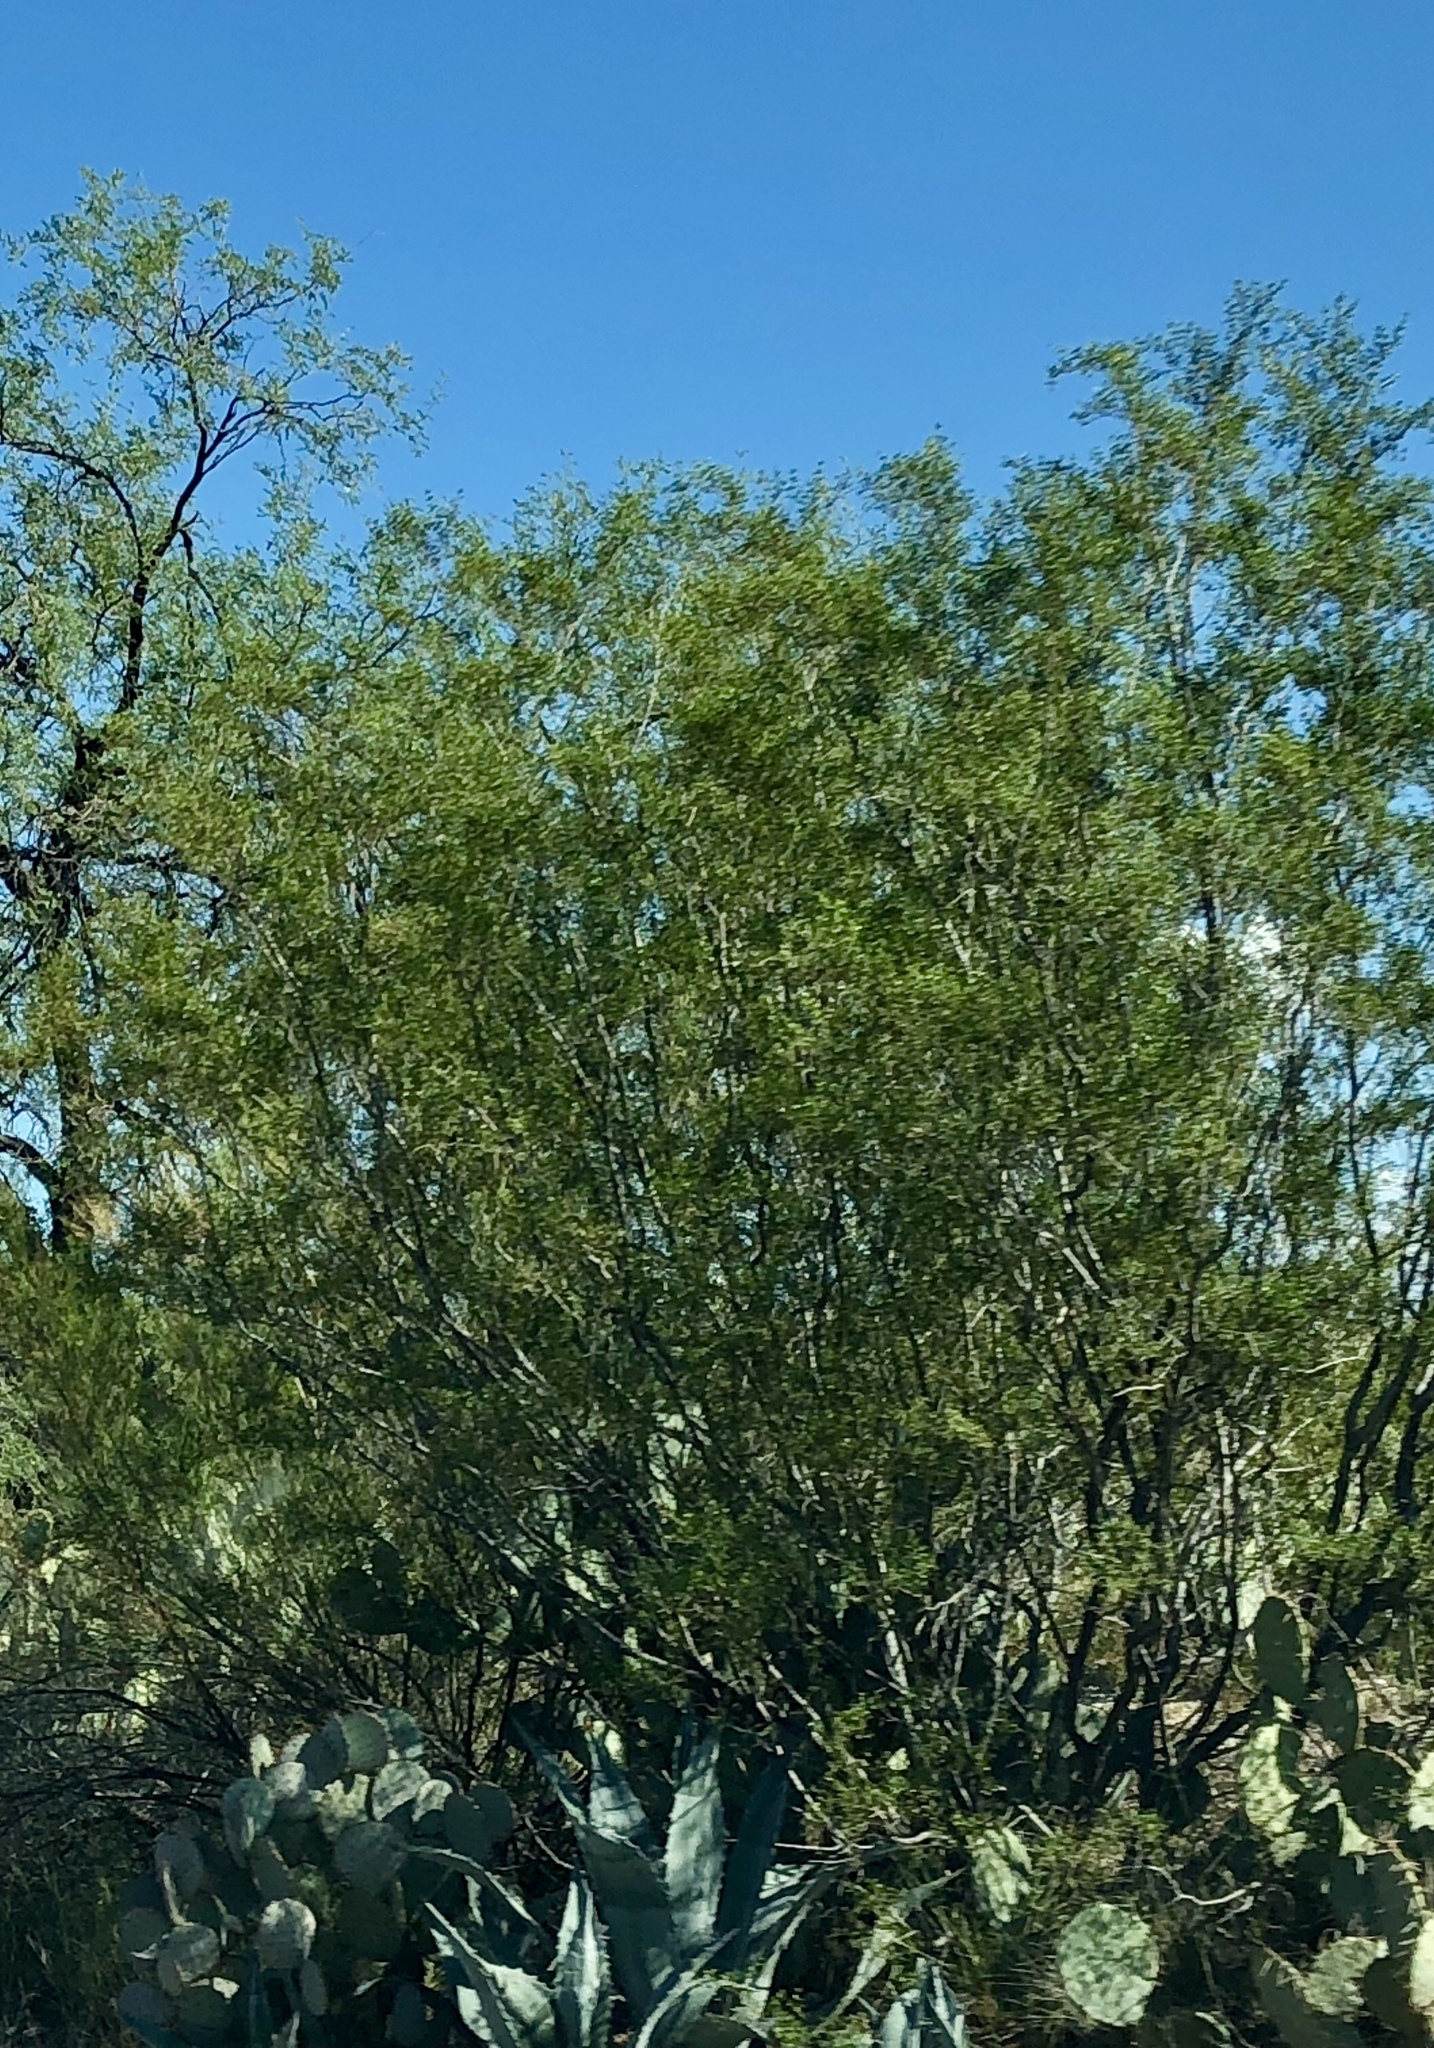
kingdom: Plantae
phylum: Tracheophyta
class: Magnoliopsida
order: Zygophyllales
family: Zygophyllaceae
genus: Larrea
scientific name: Larrea tridentata
